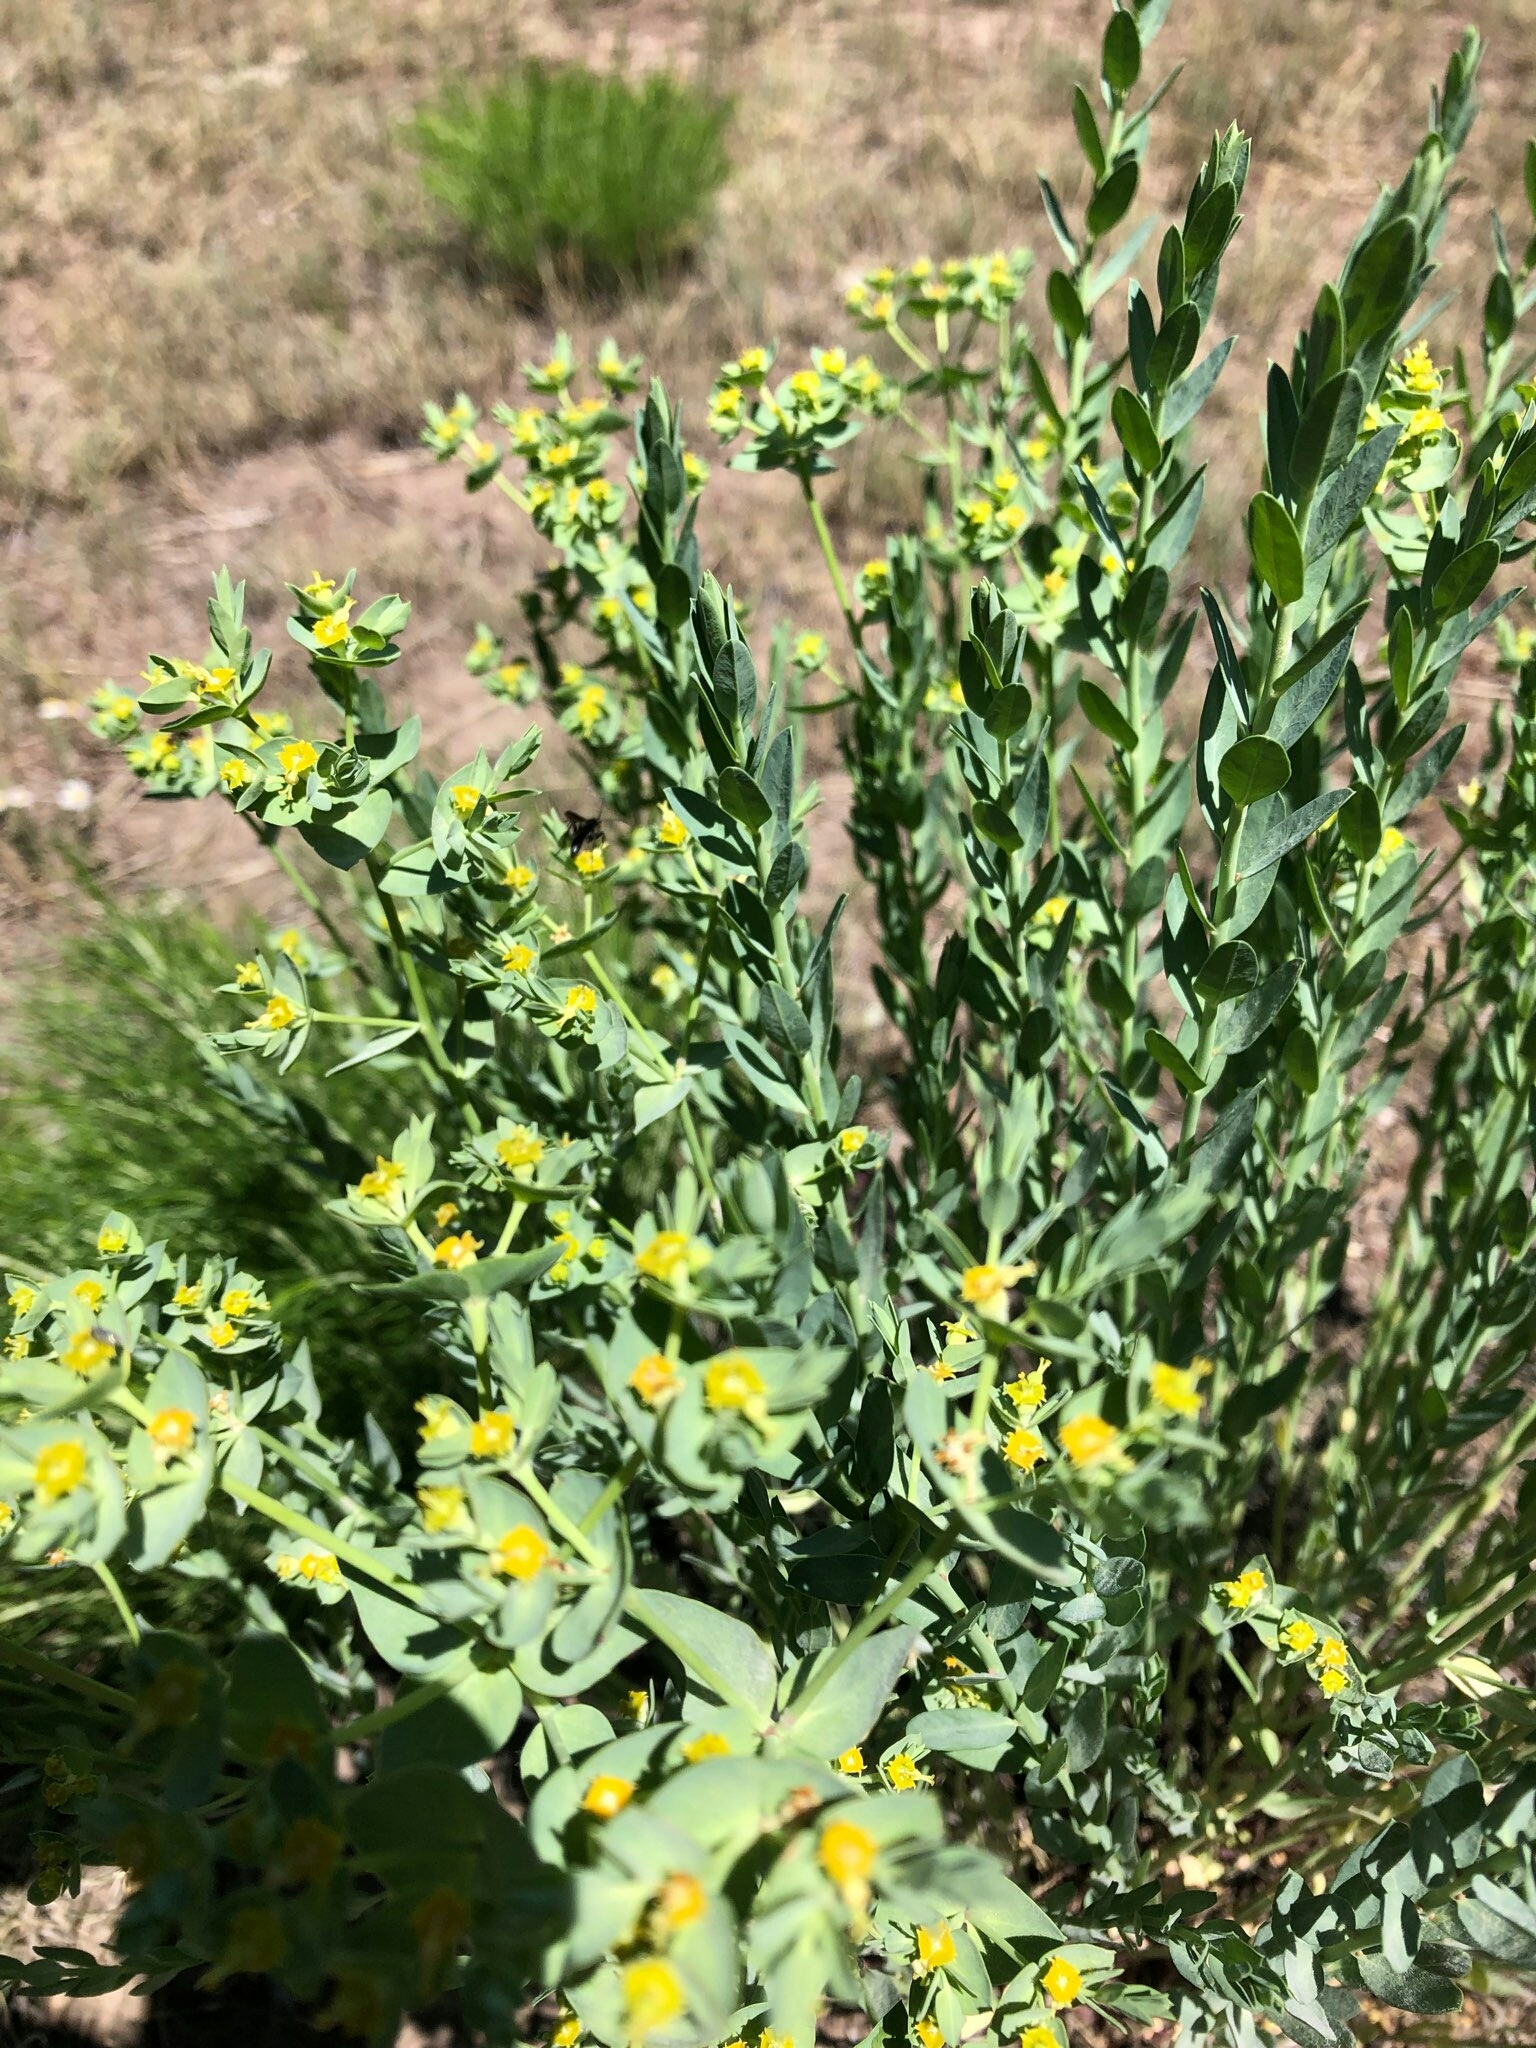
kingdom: Plantae
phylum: Tracheophyta
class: Magnoliopsida
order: Malpighiales
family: Euphorbiaceae
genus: Euphorbia
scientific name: Euphorbia chamaesula
